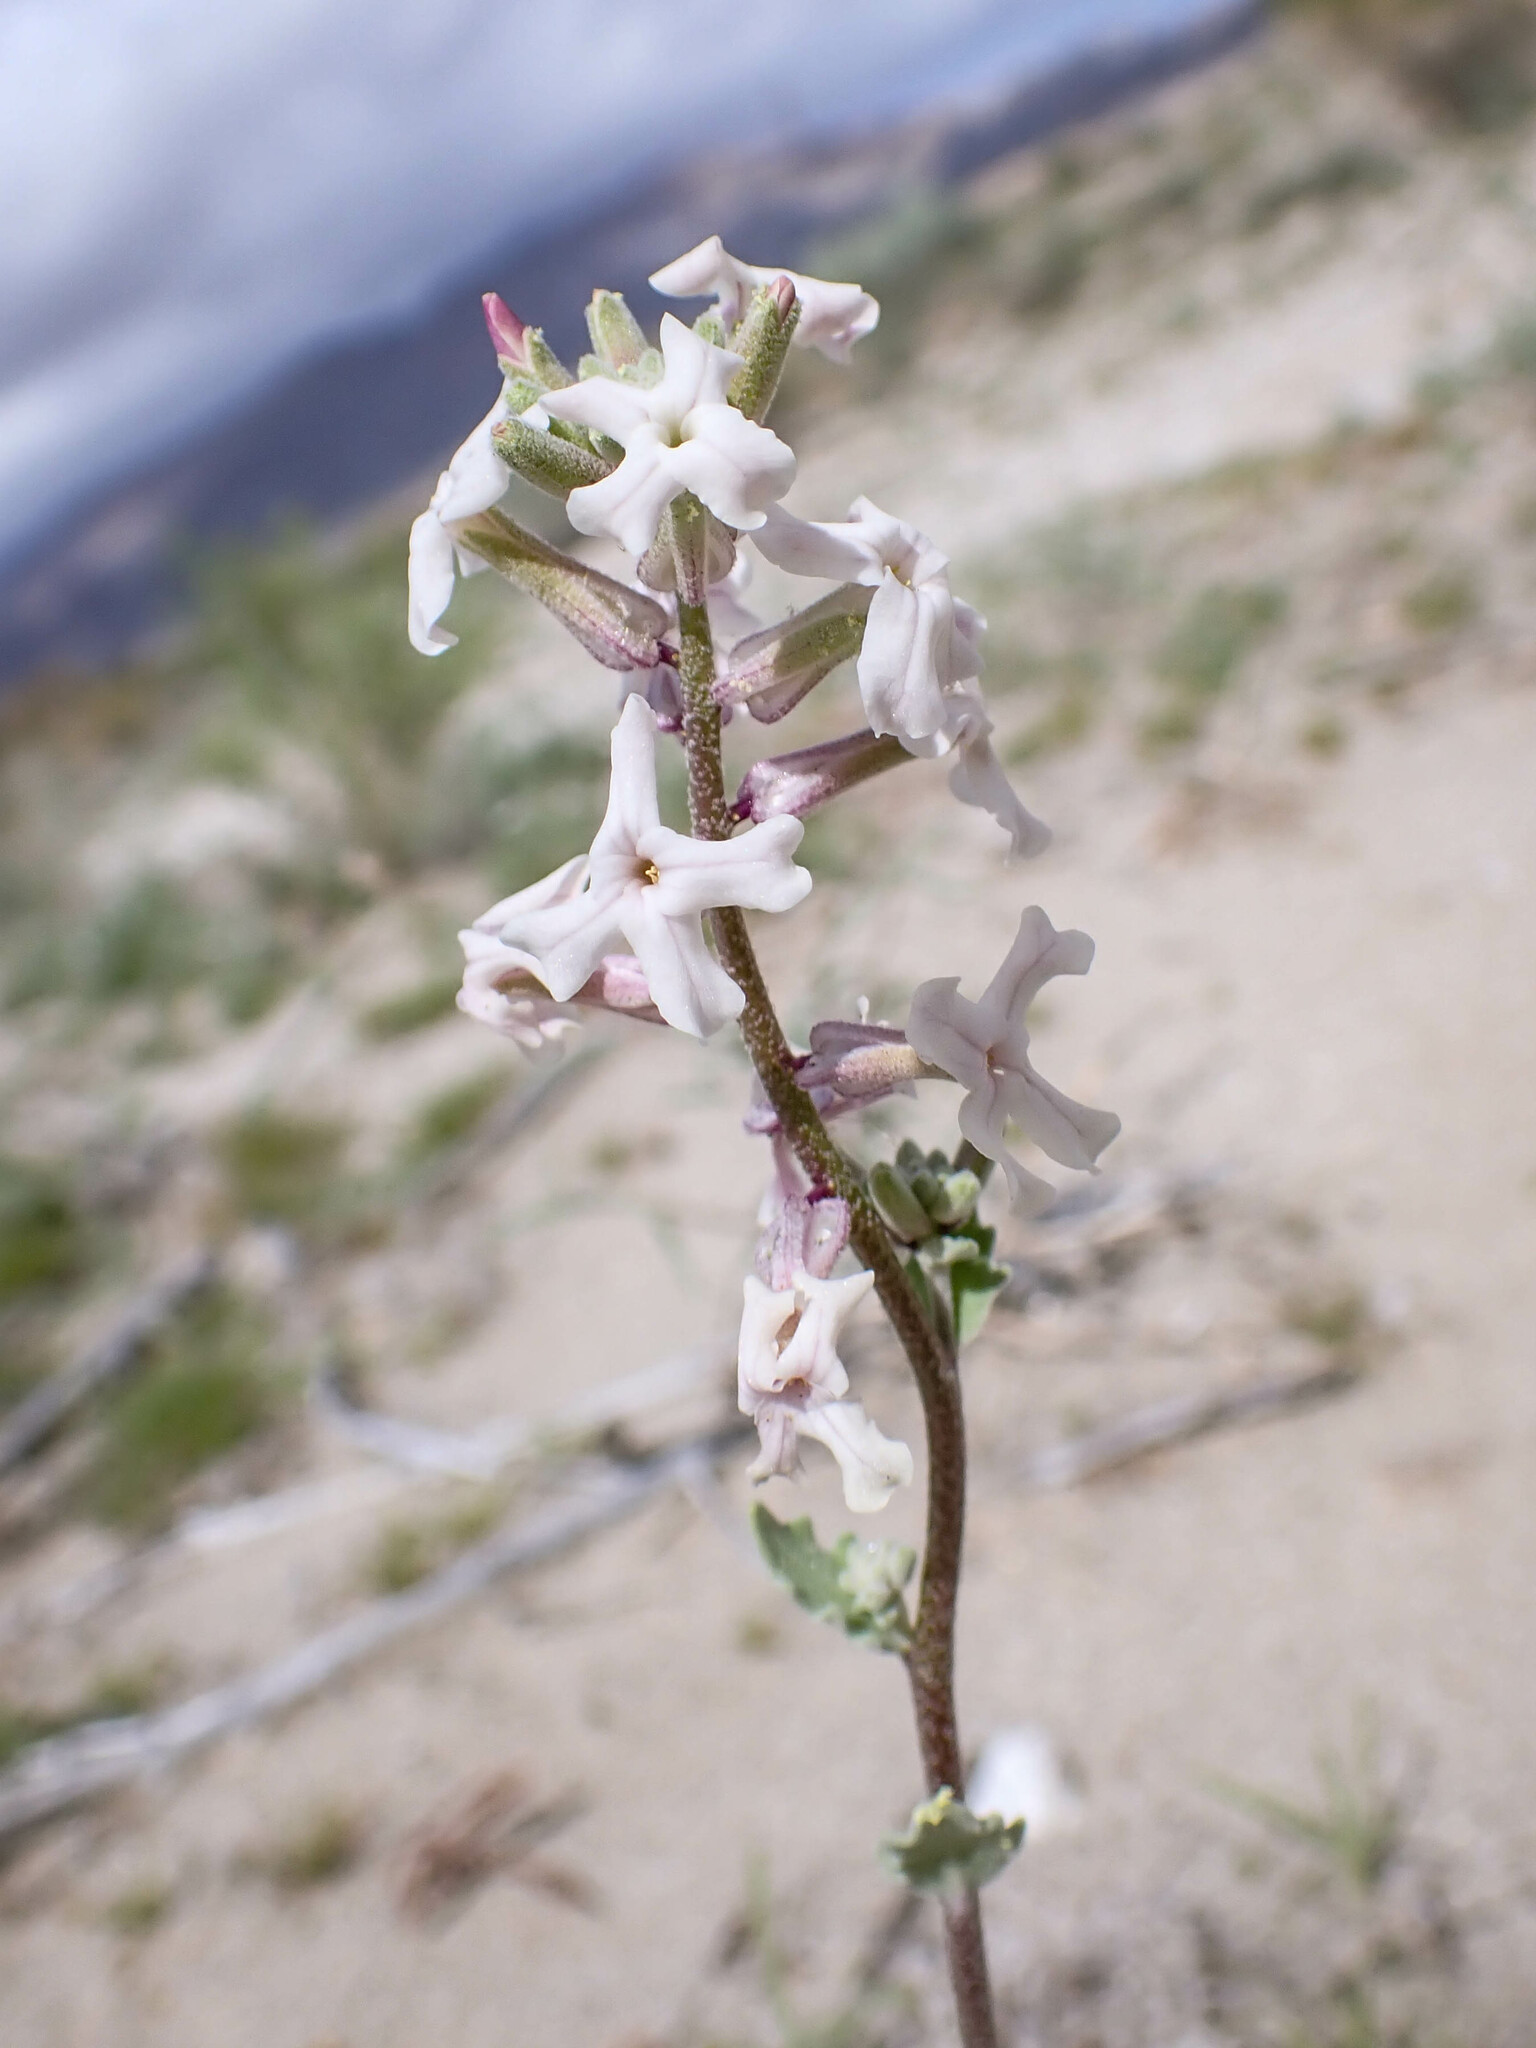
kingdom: Plantae
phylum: Tracheophyta
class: Magnoliopsida
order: Brassicales
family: Brassicaceae
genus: Dithyrea
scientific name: Dithyrea californica
